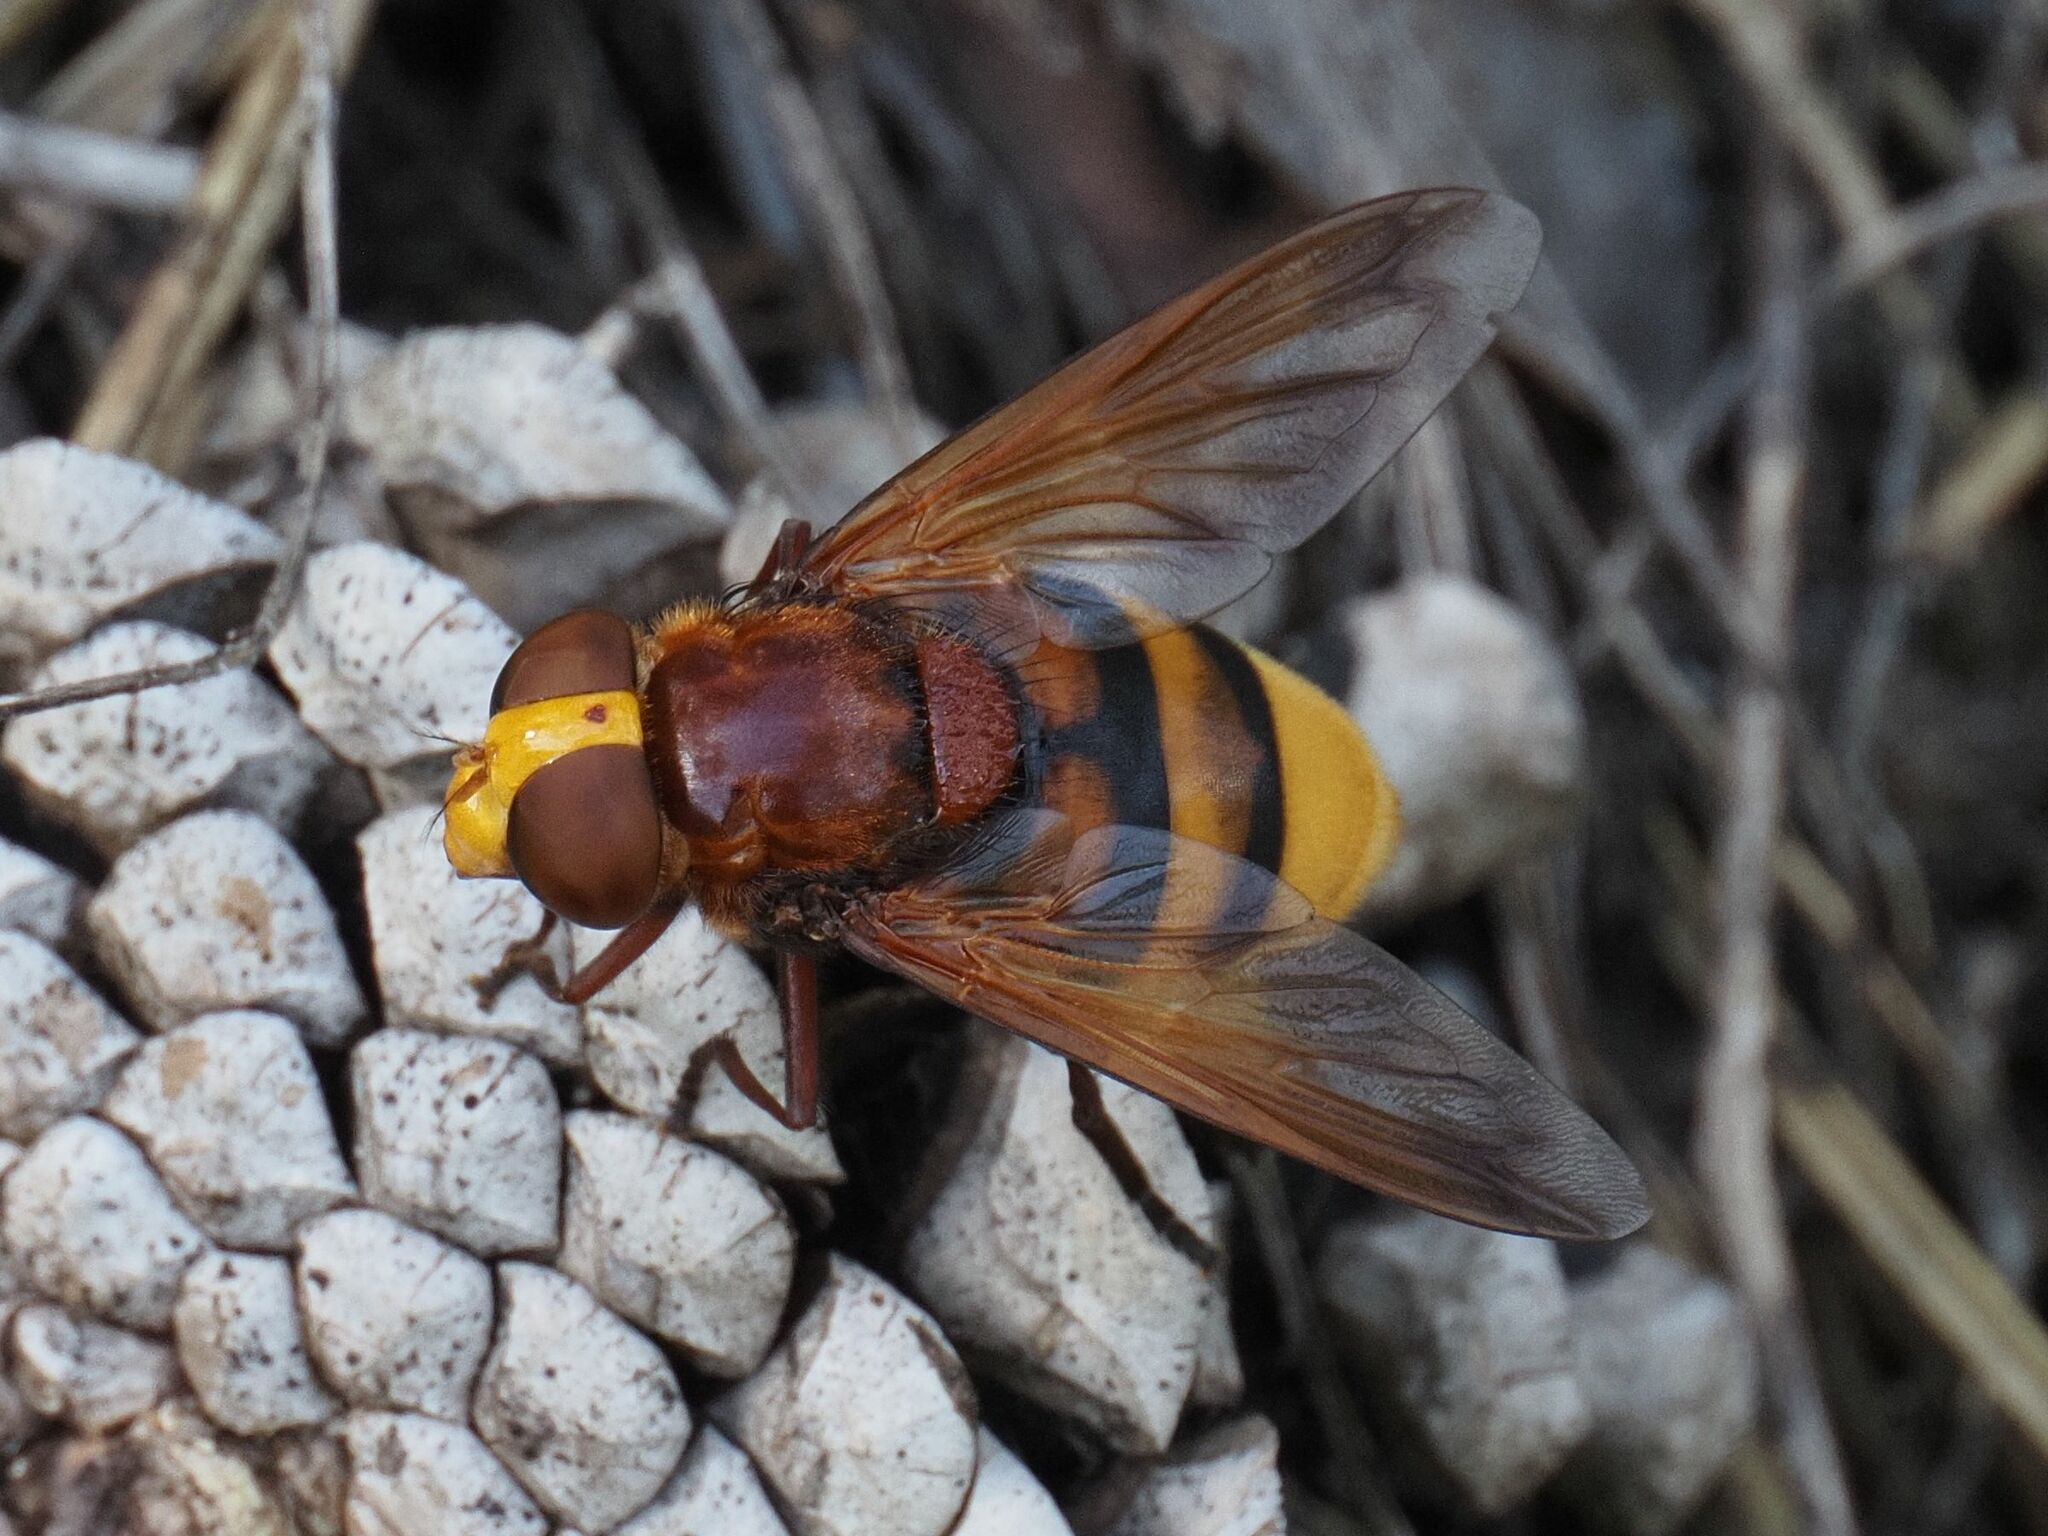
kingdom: Animalia
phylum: Arthropoda
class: Insecta
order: Diptera
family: Syrphidae
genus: Volucella
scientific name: Volucella zonaria
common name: Hornet hoverfly
